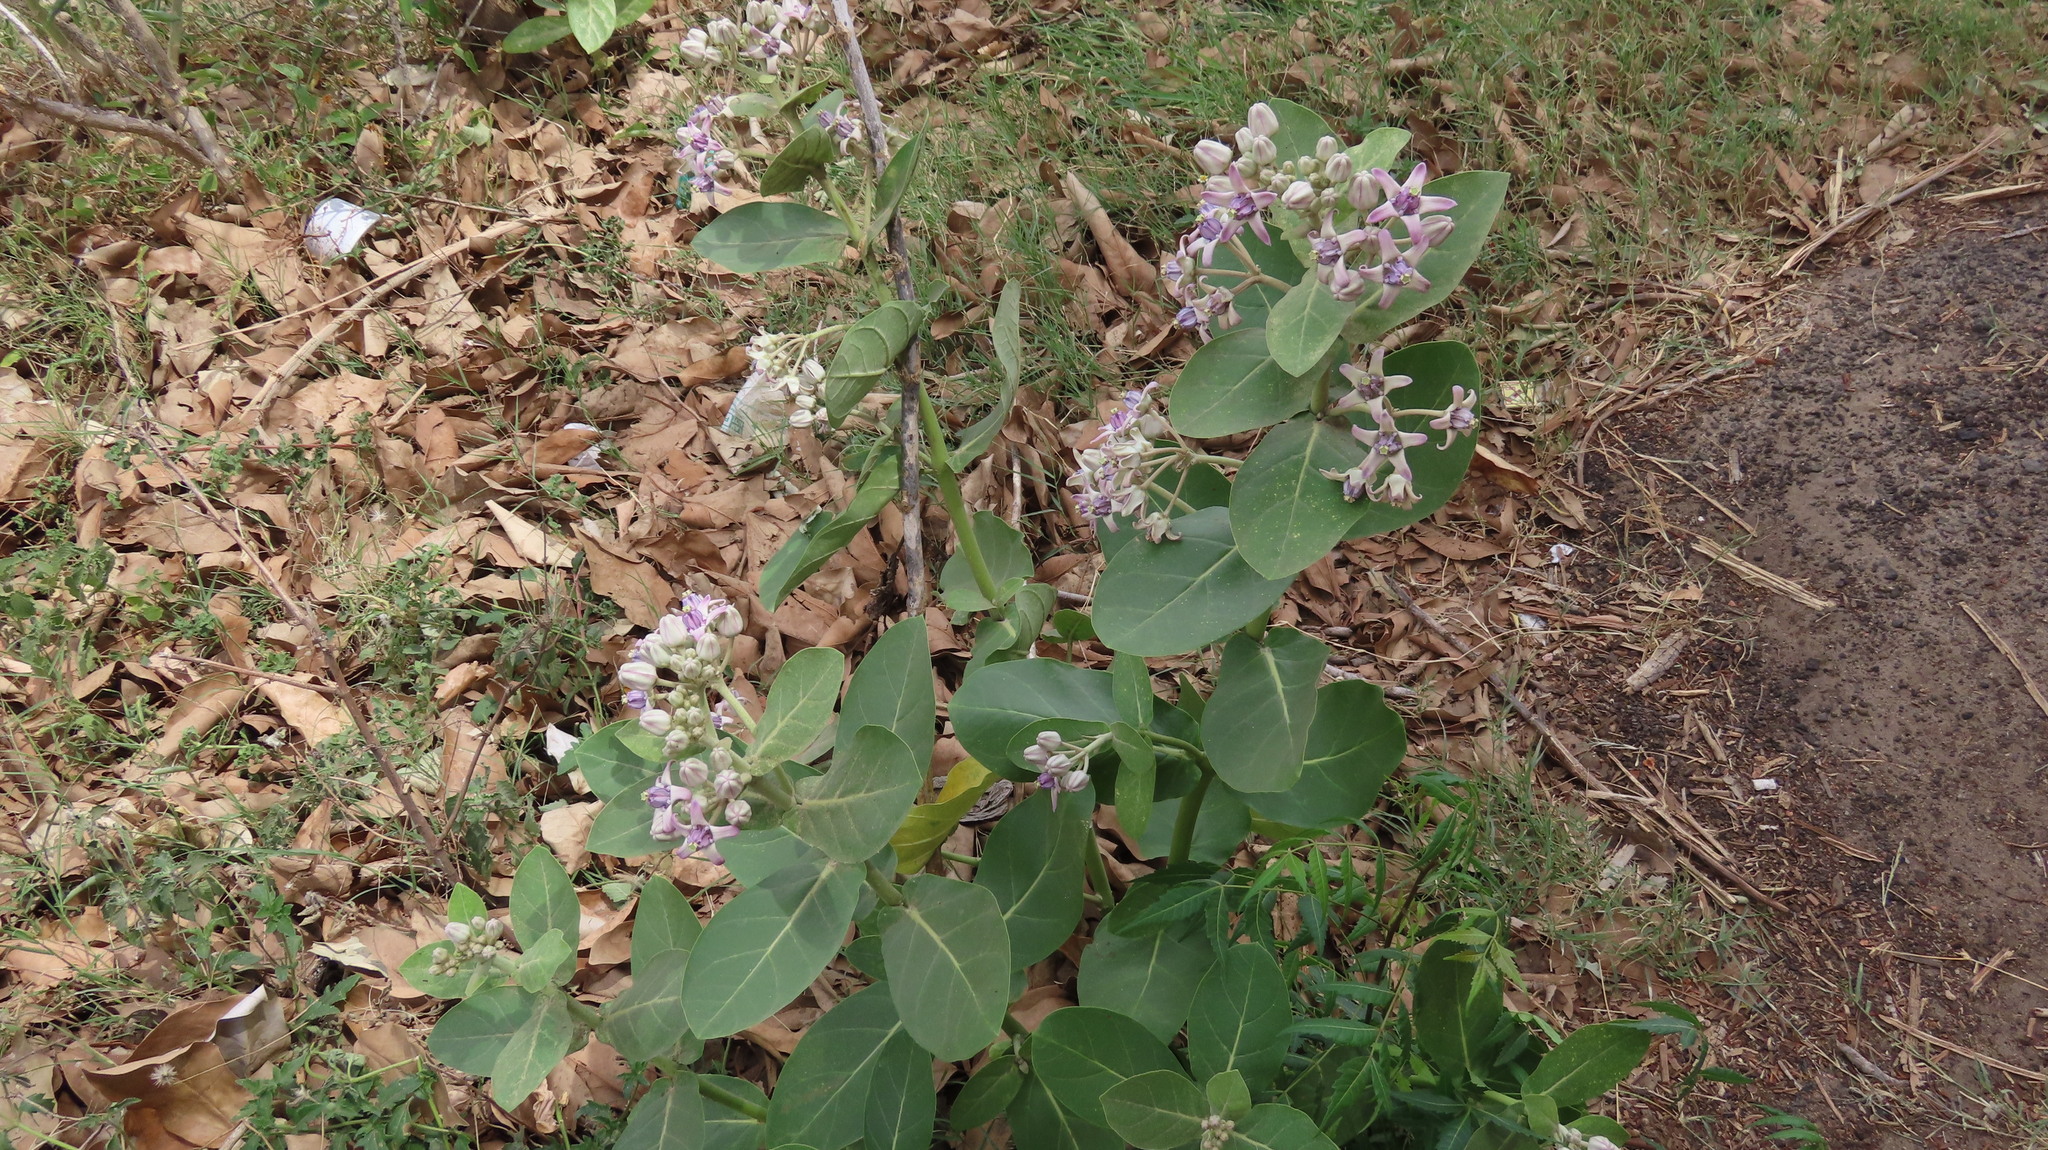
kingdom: Plantae
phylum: Tracheophyta
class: Magnoliopsida
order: Gentianales
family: Apocynaceae
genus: Calotropis
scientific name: Calotropis gigantea
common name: Crown flower
